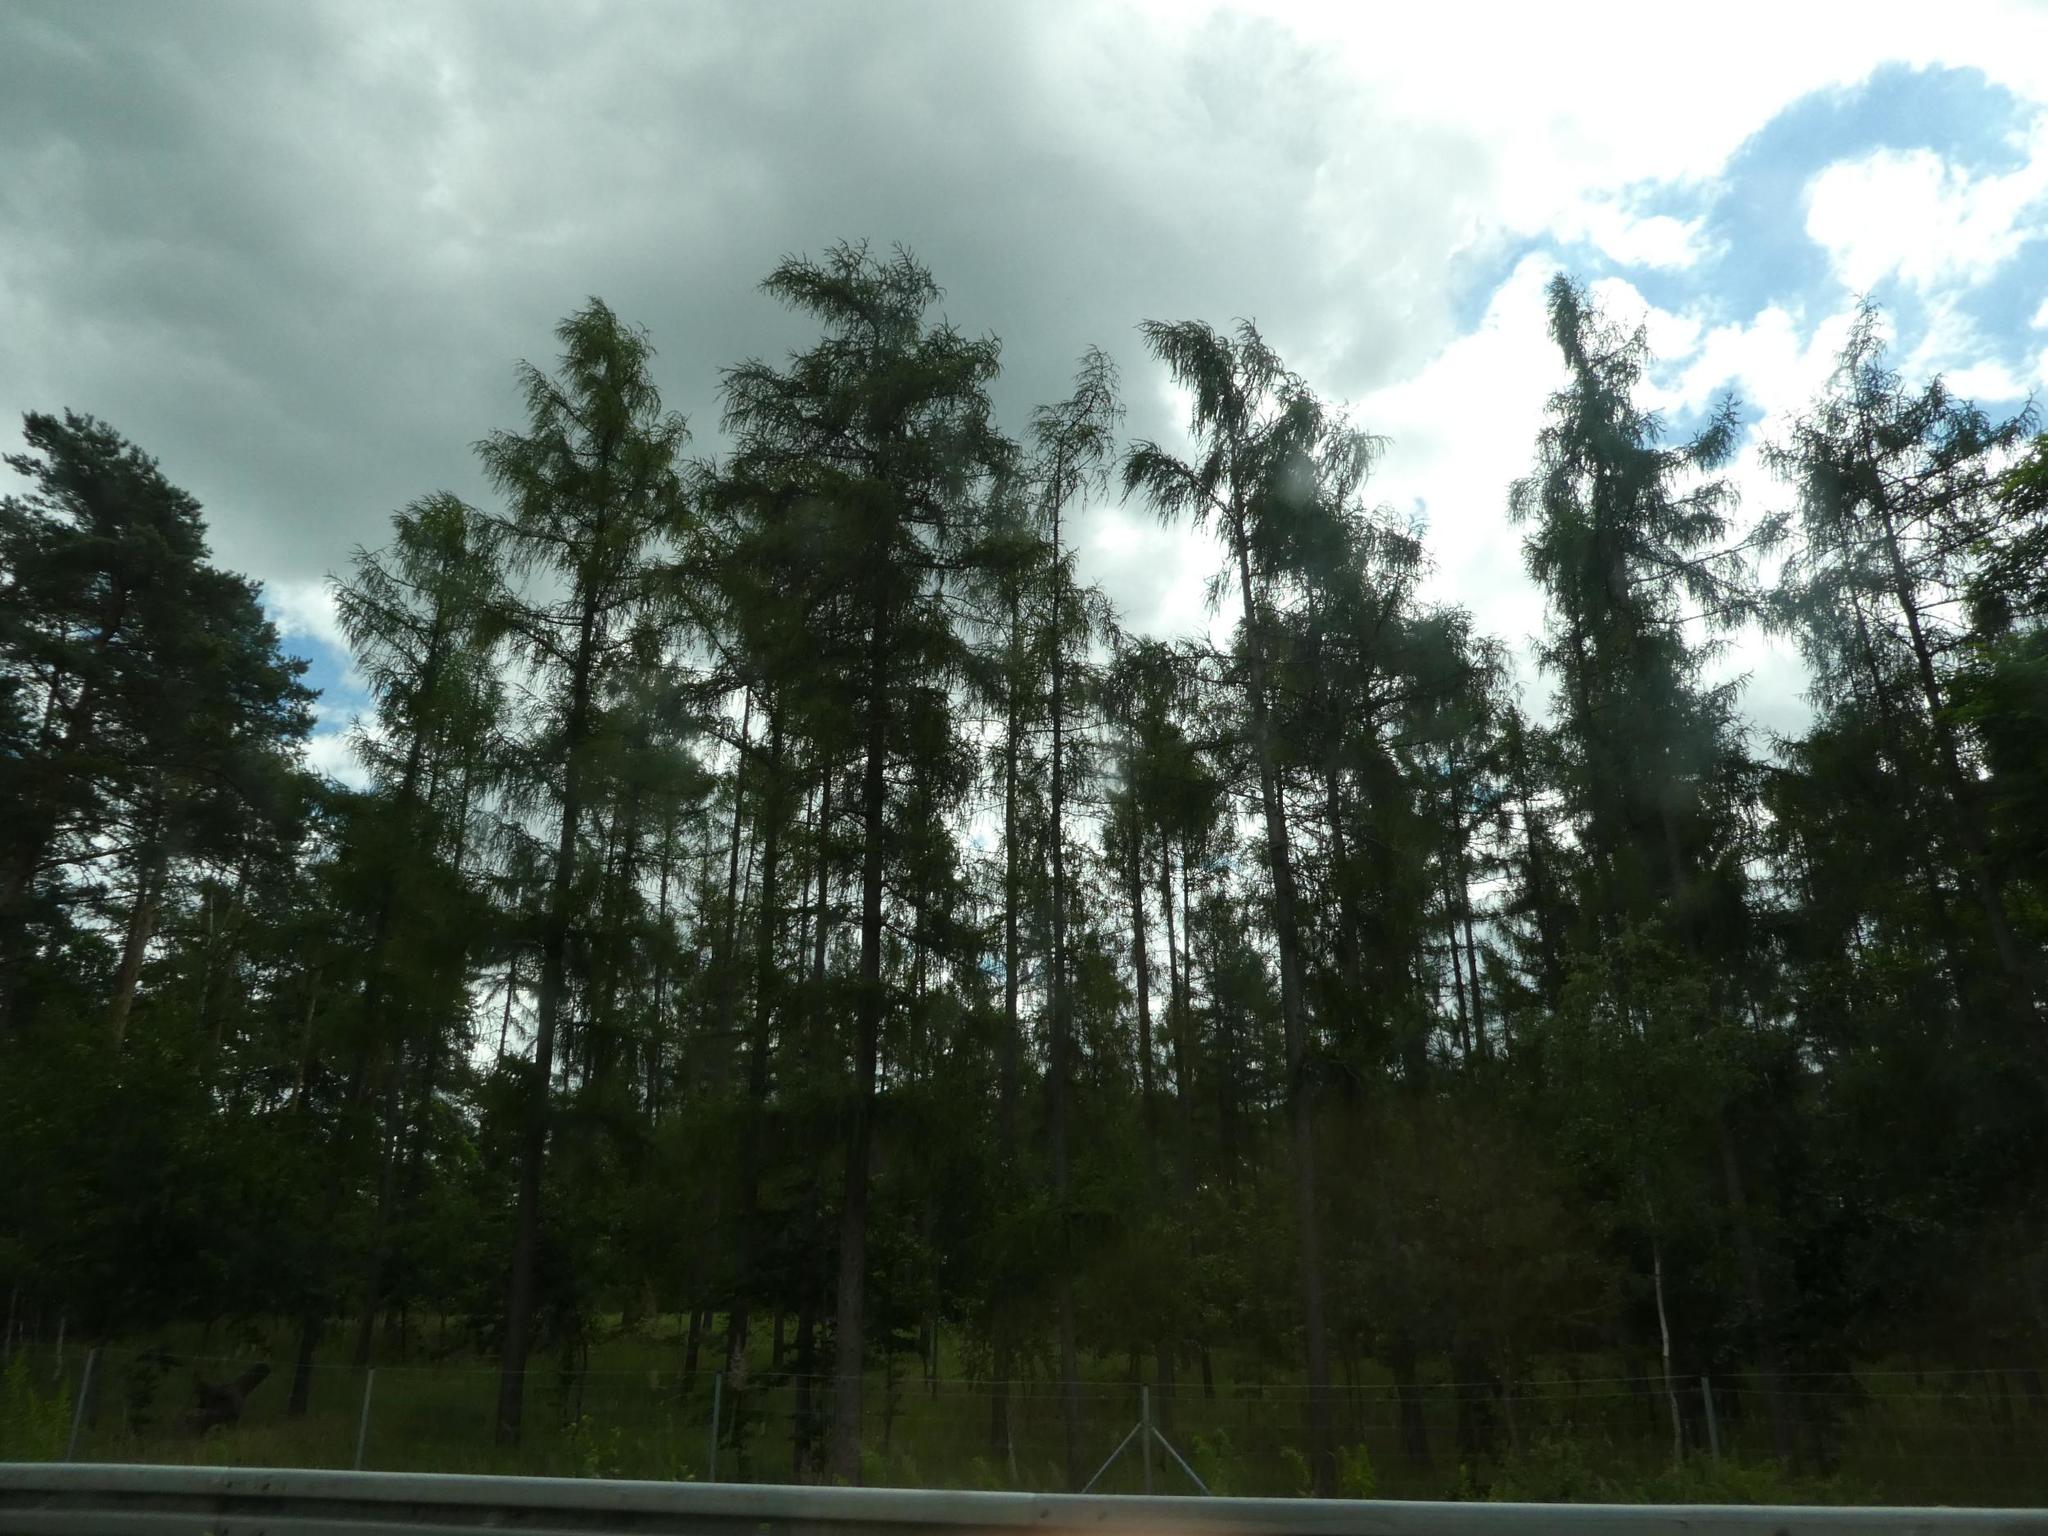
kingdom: Plantae
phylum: Tracheophyta
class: Pinopsida
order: Pinales
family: Pinaceae
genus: Larix
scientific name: Larix decidua
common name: European larch
